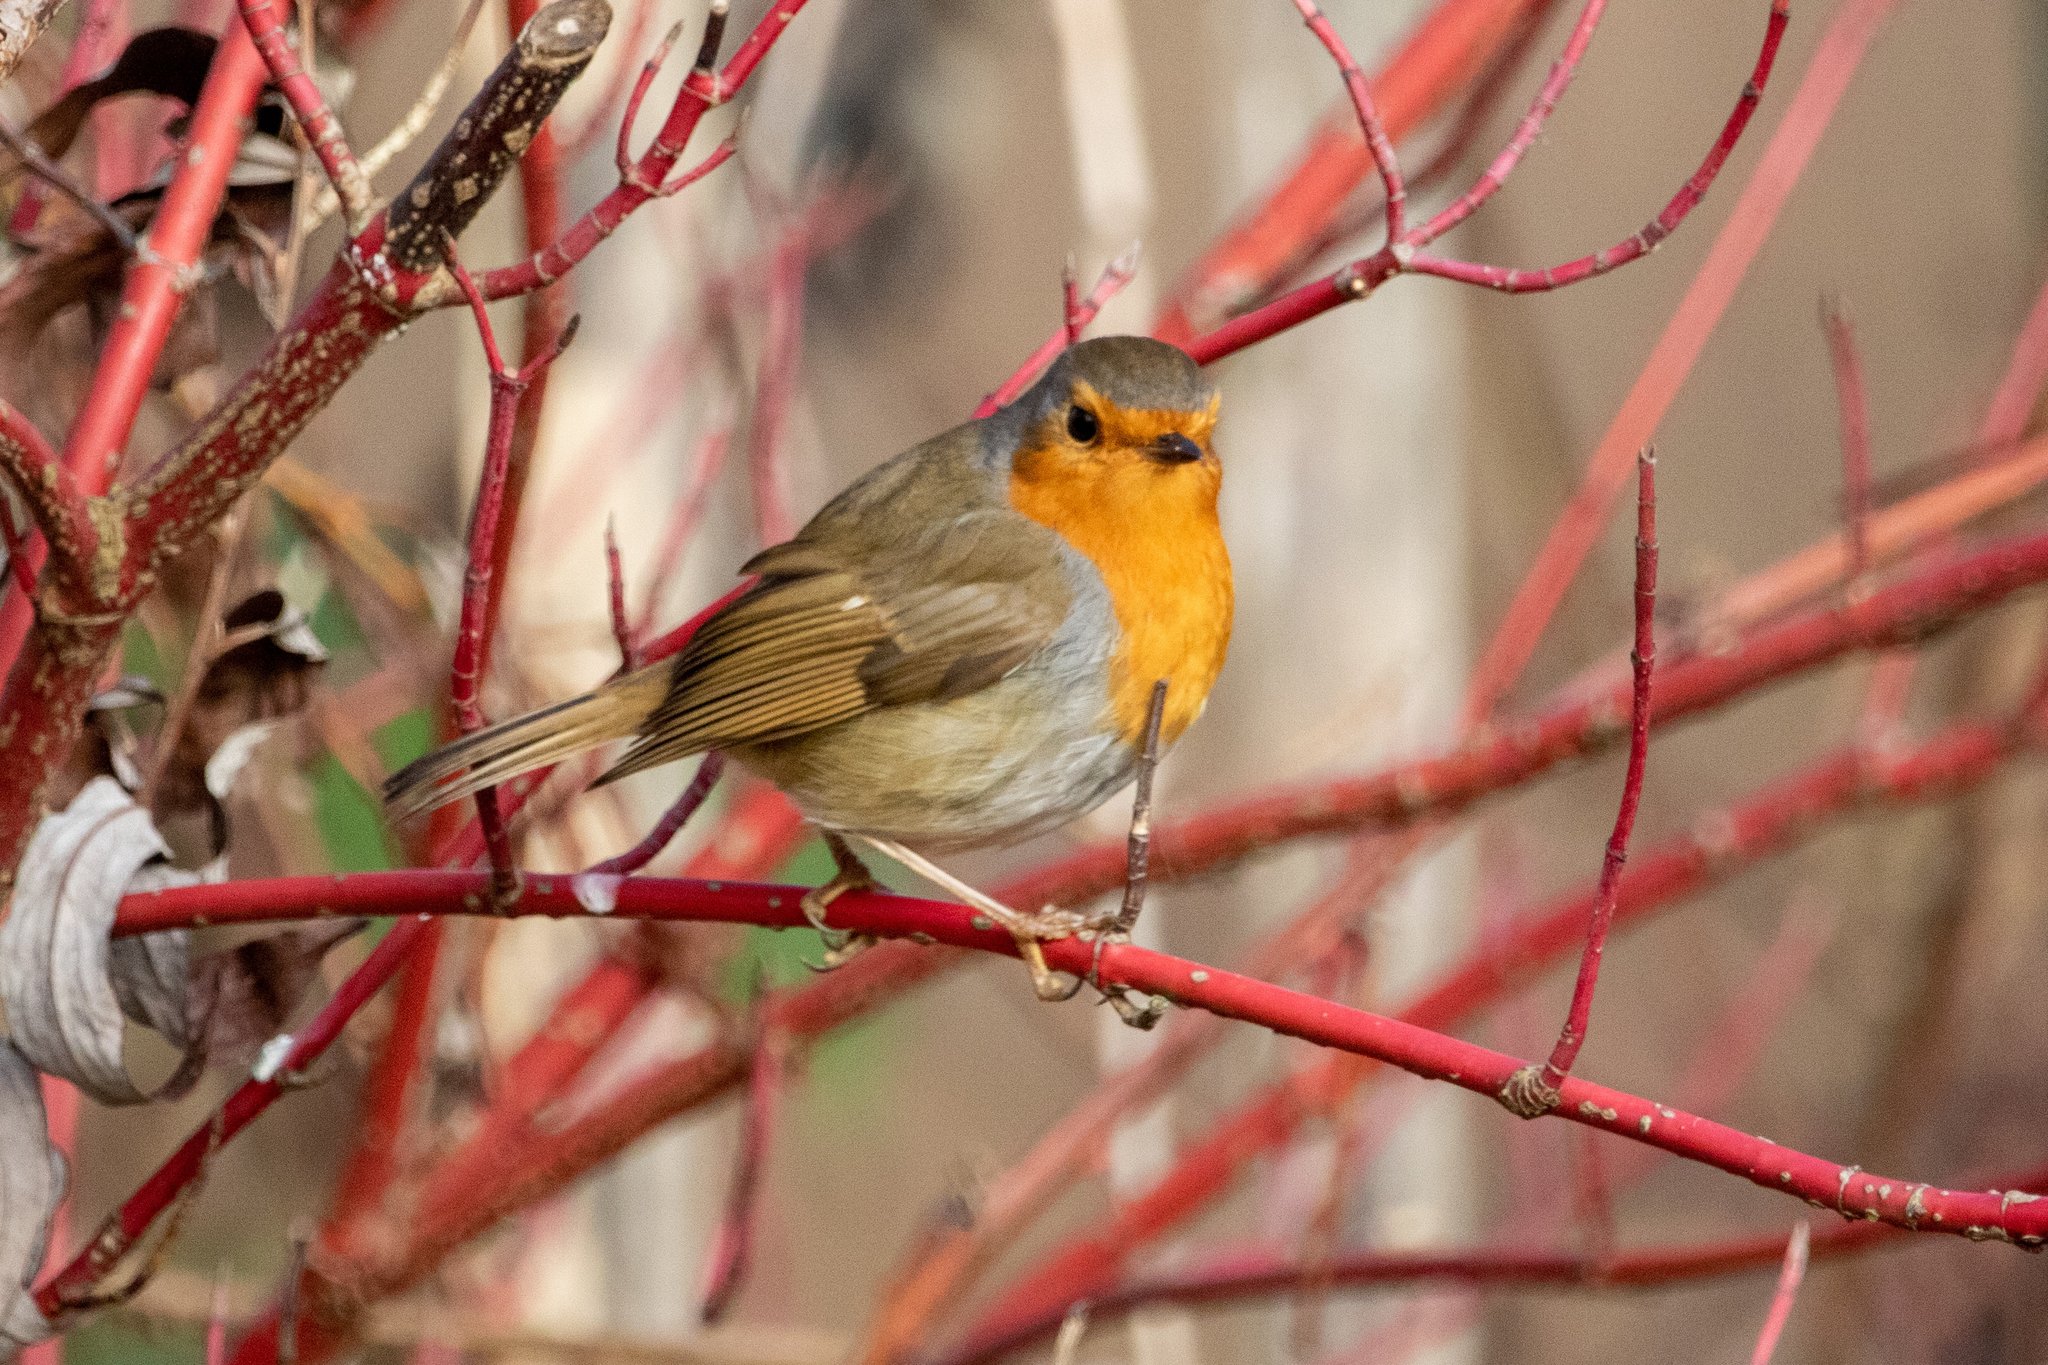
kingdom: Animalia
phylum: Chordata
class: Aves
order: Passeriformes
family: Muscicapidae
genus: Erithacus
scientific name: Erithacus rubecula
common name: European robin
